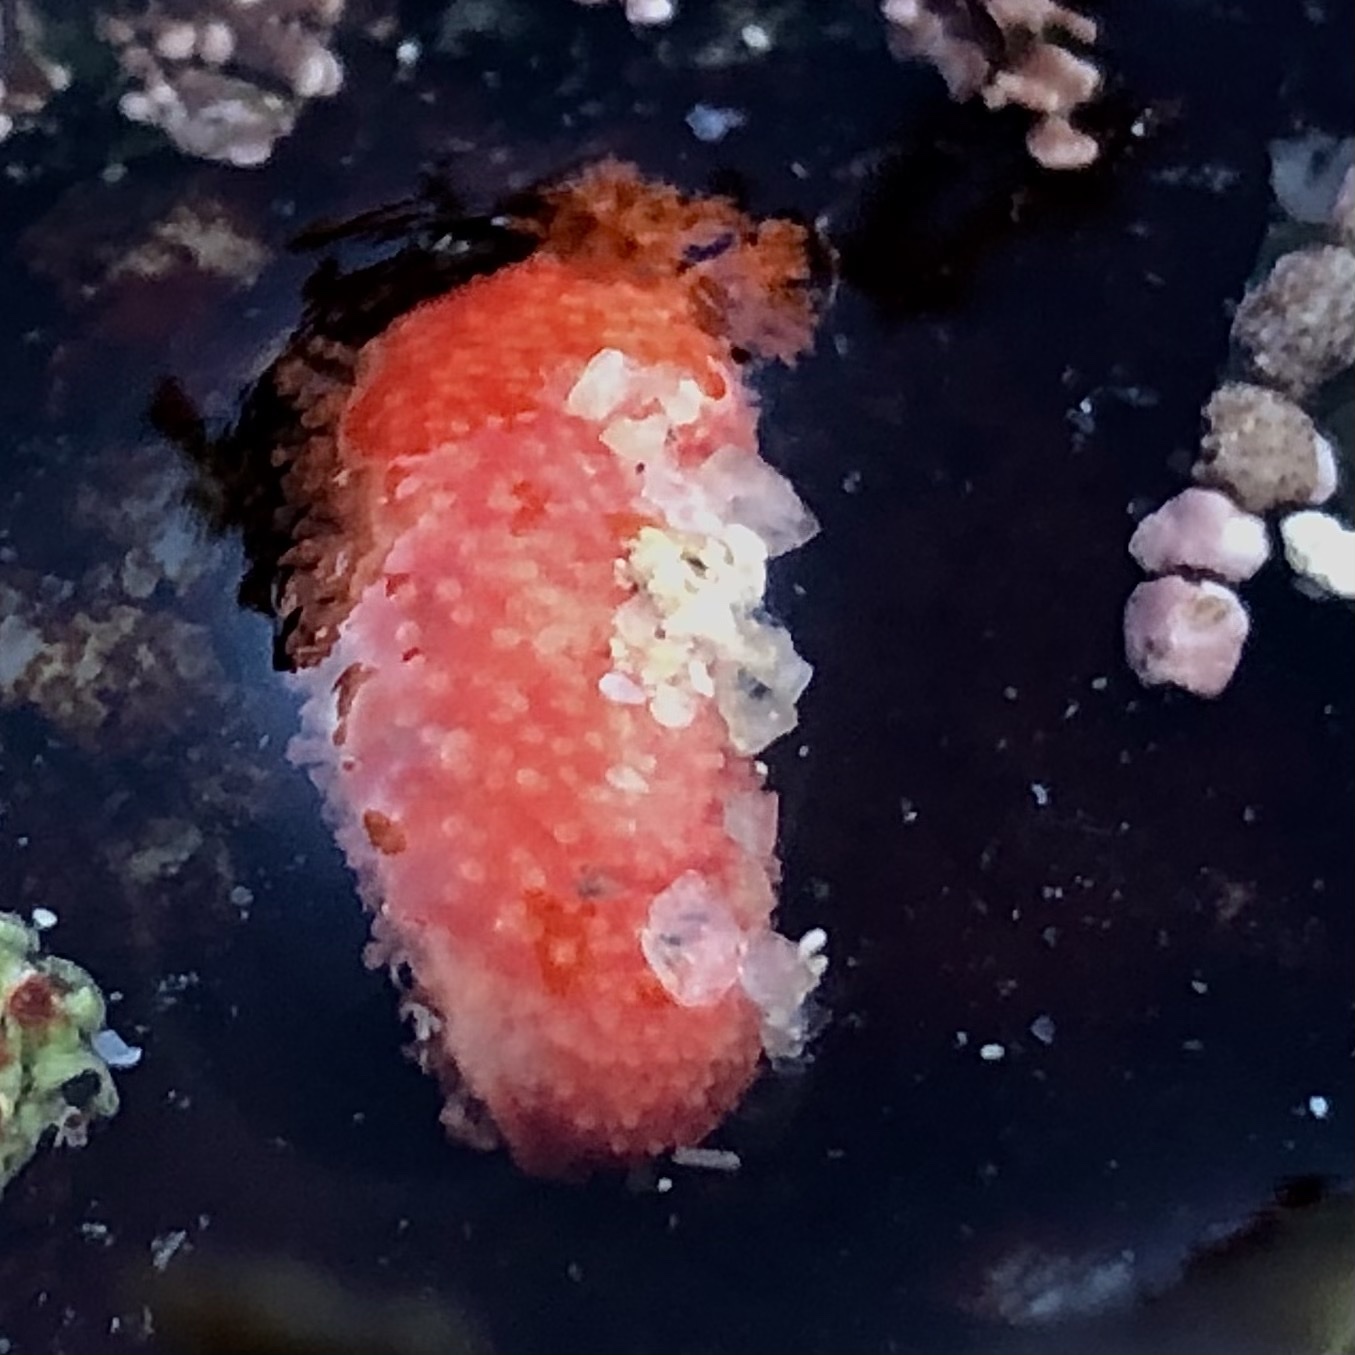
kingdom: Animalia
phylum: Echinodermata
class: Holothuroidea
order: Dendrochirotida
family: Psolidae
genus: Lissothuria
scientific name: Lissothuria nutriens
